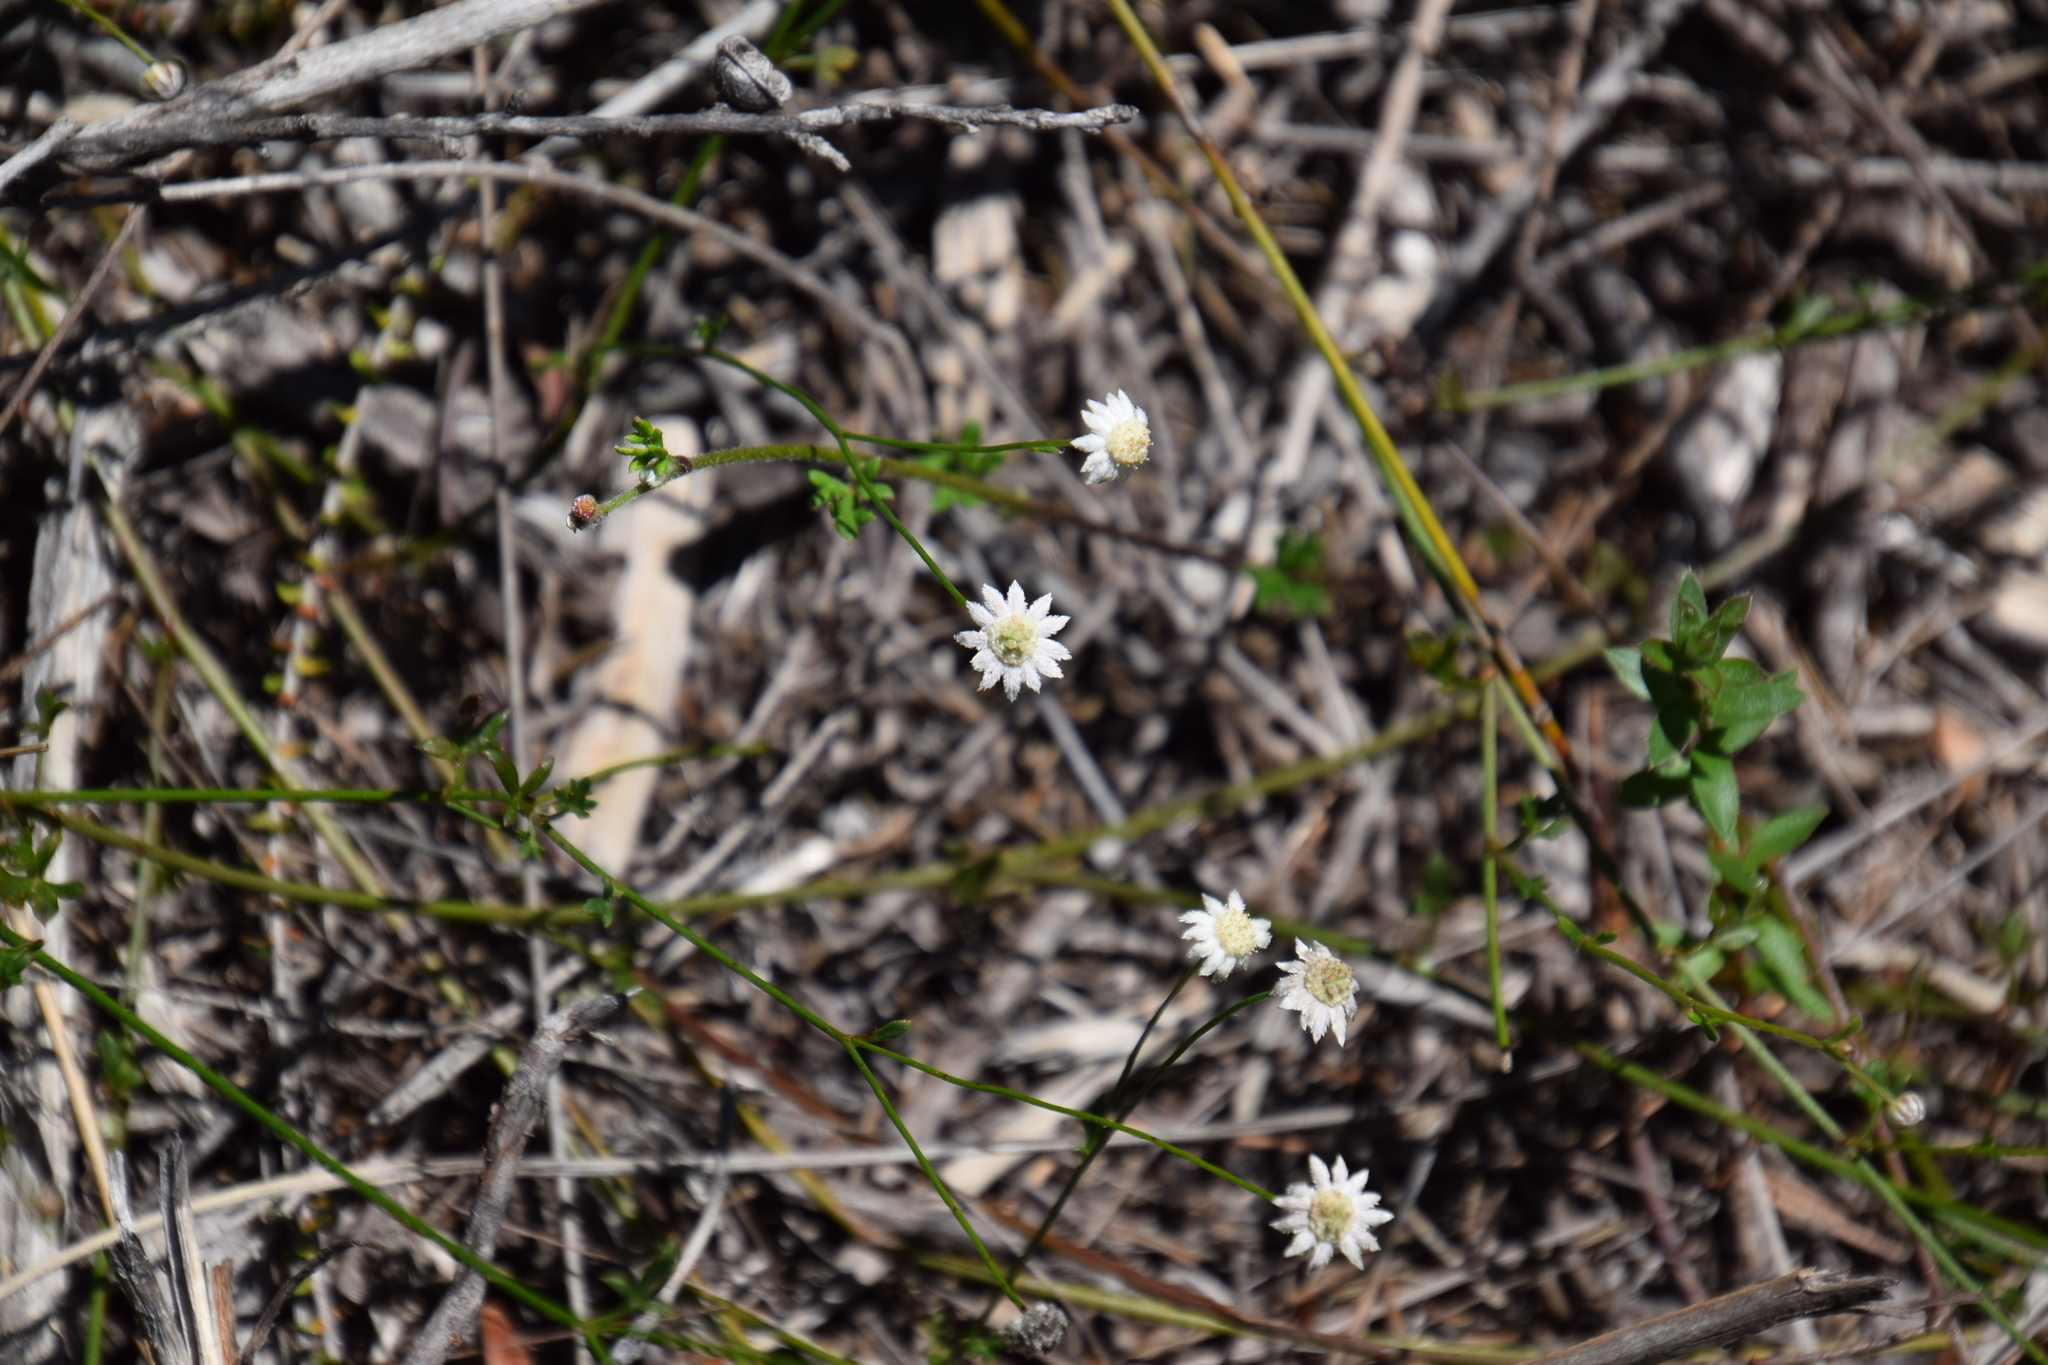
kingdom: Plantae
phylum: Tracheophyta
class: Magnoliopsida
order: Apiales
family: Apiaceae
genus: Actinotus
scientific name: Actinotus minor
